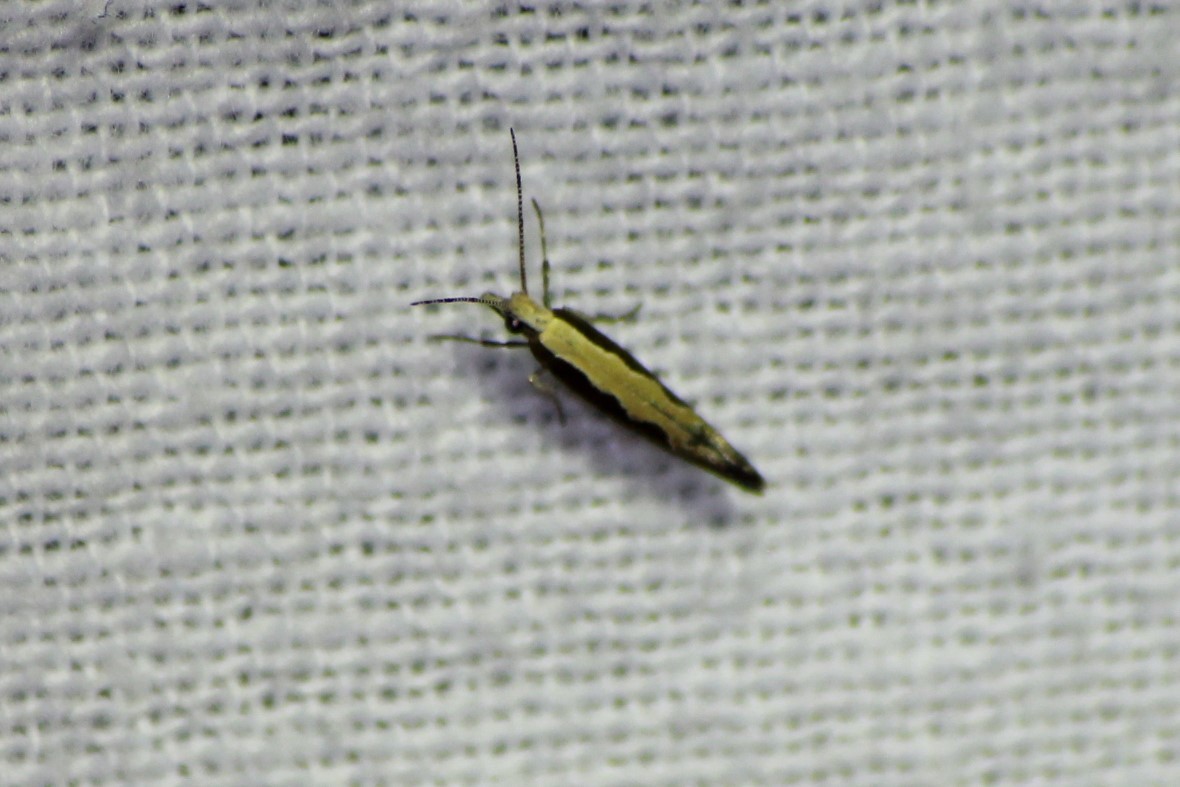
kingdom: Animalia
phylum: Arthropoda
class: Insecta
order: Lepidoptera
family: Plutellidae
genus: Plutella
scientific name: Plutella xylostella
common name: Diamond-back moth
